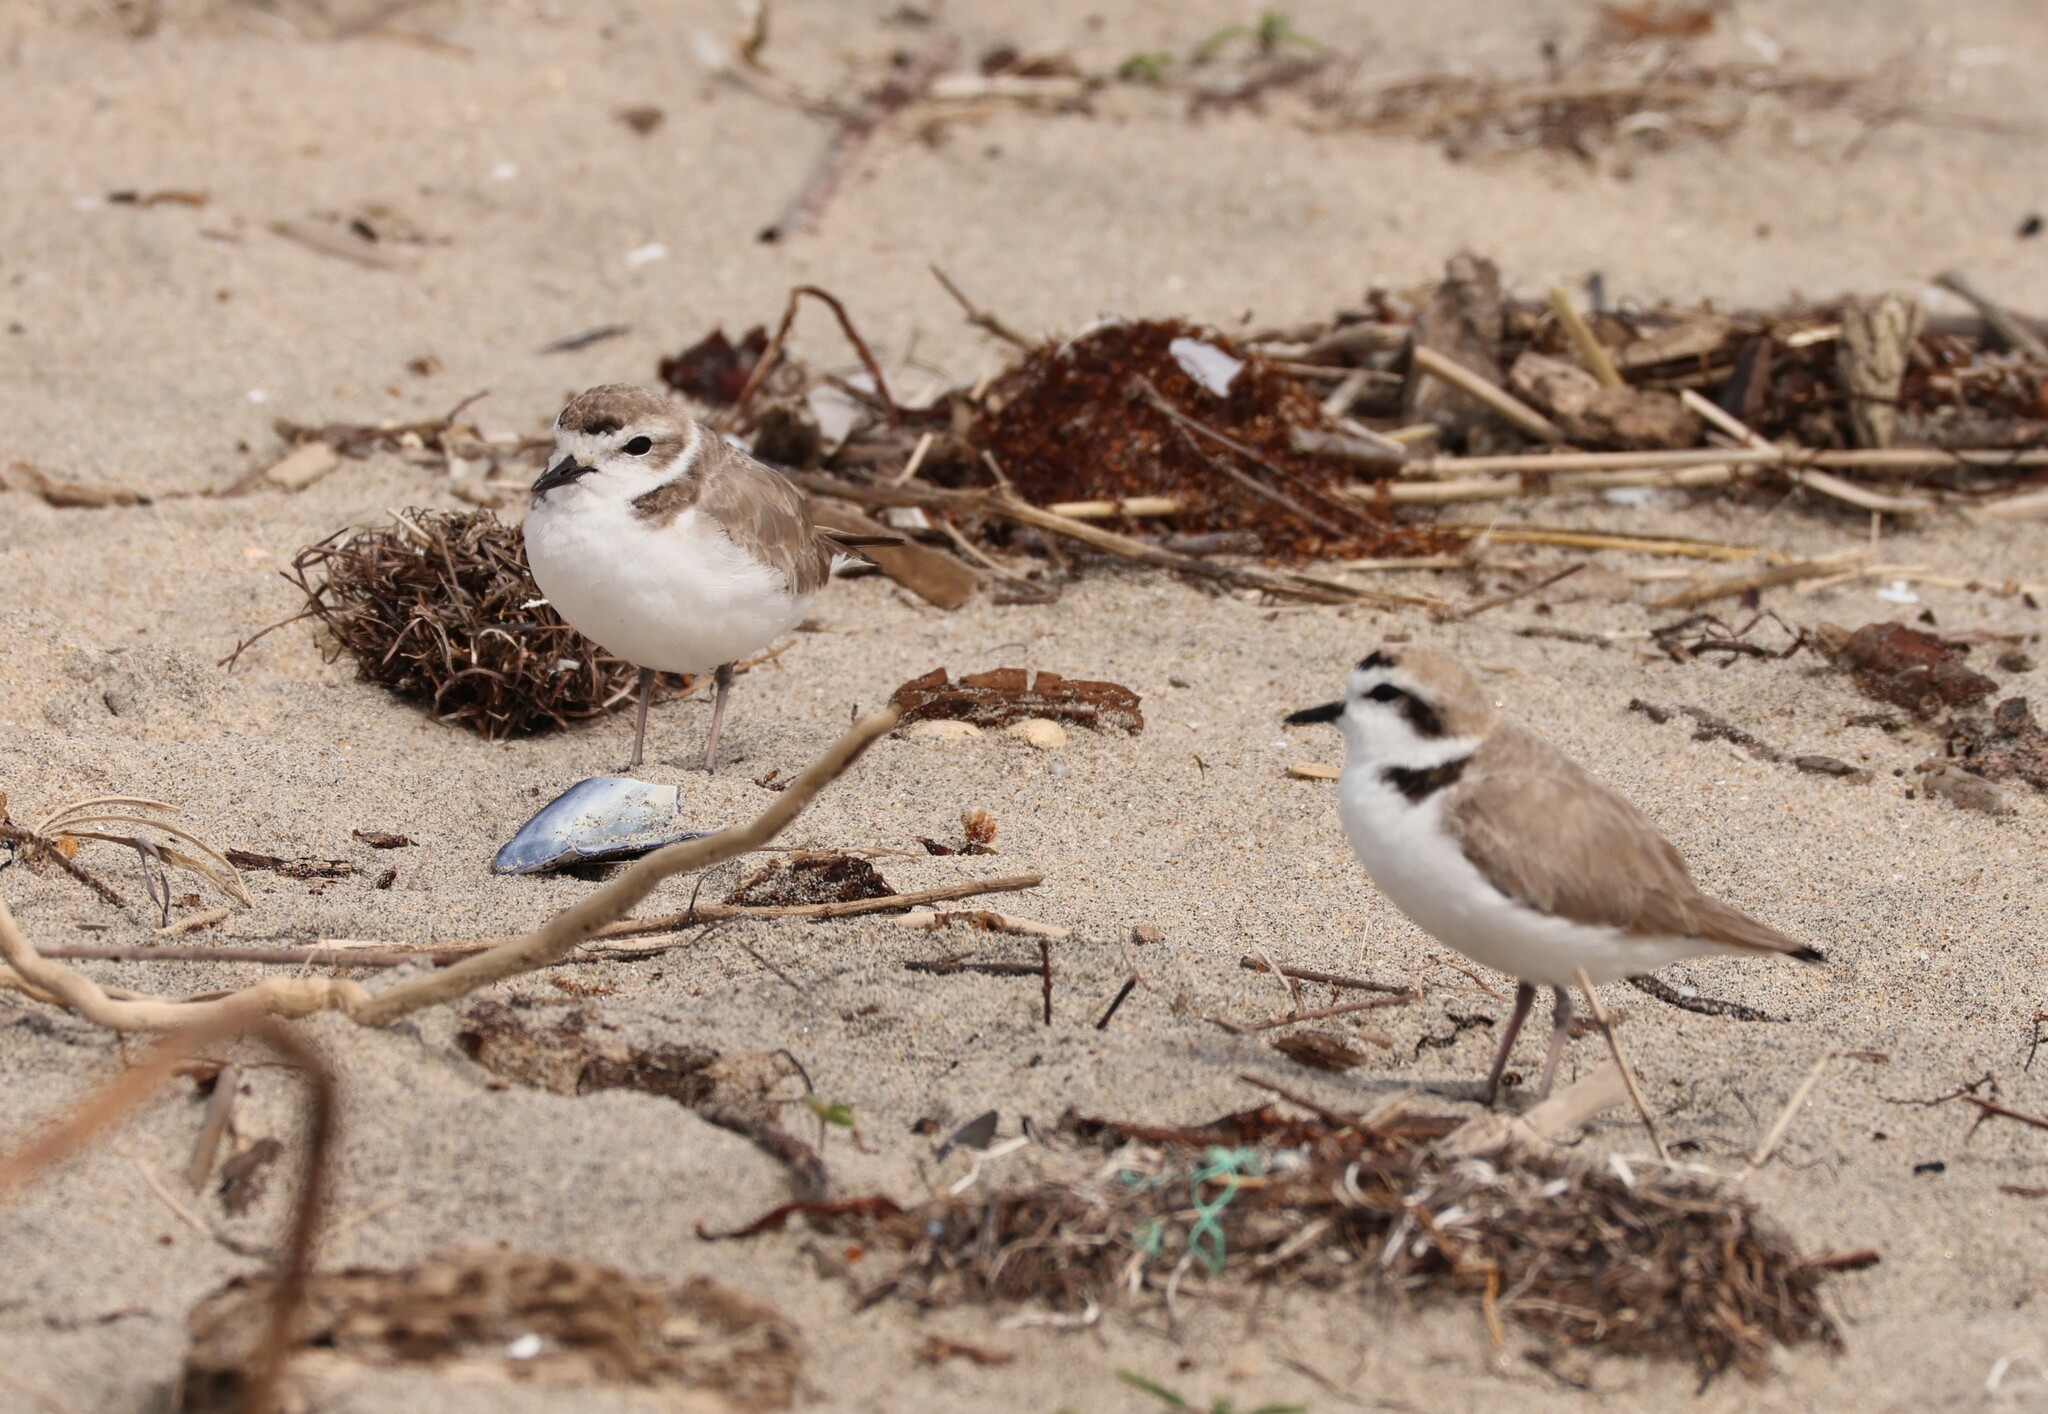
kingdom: Animalia
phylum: Chordata
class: Aves
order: Charadriiformes
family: Charadriidae
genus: Anarhynchus
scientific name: Anarhynchus
